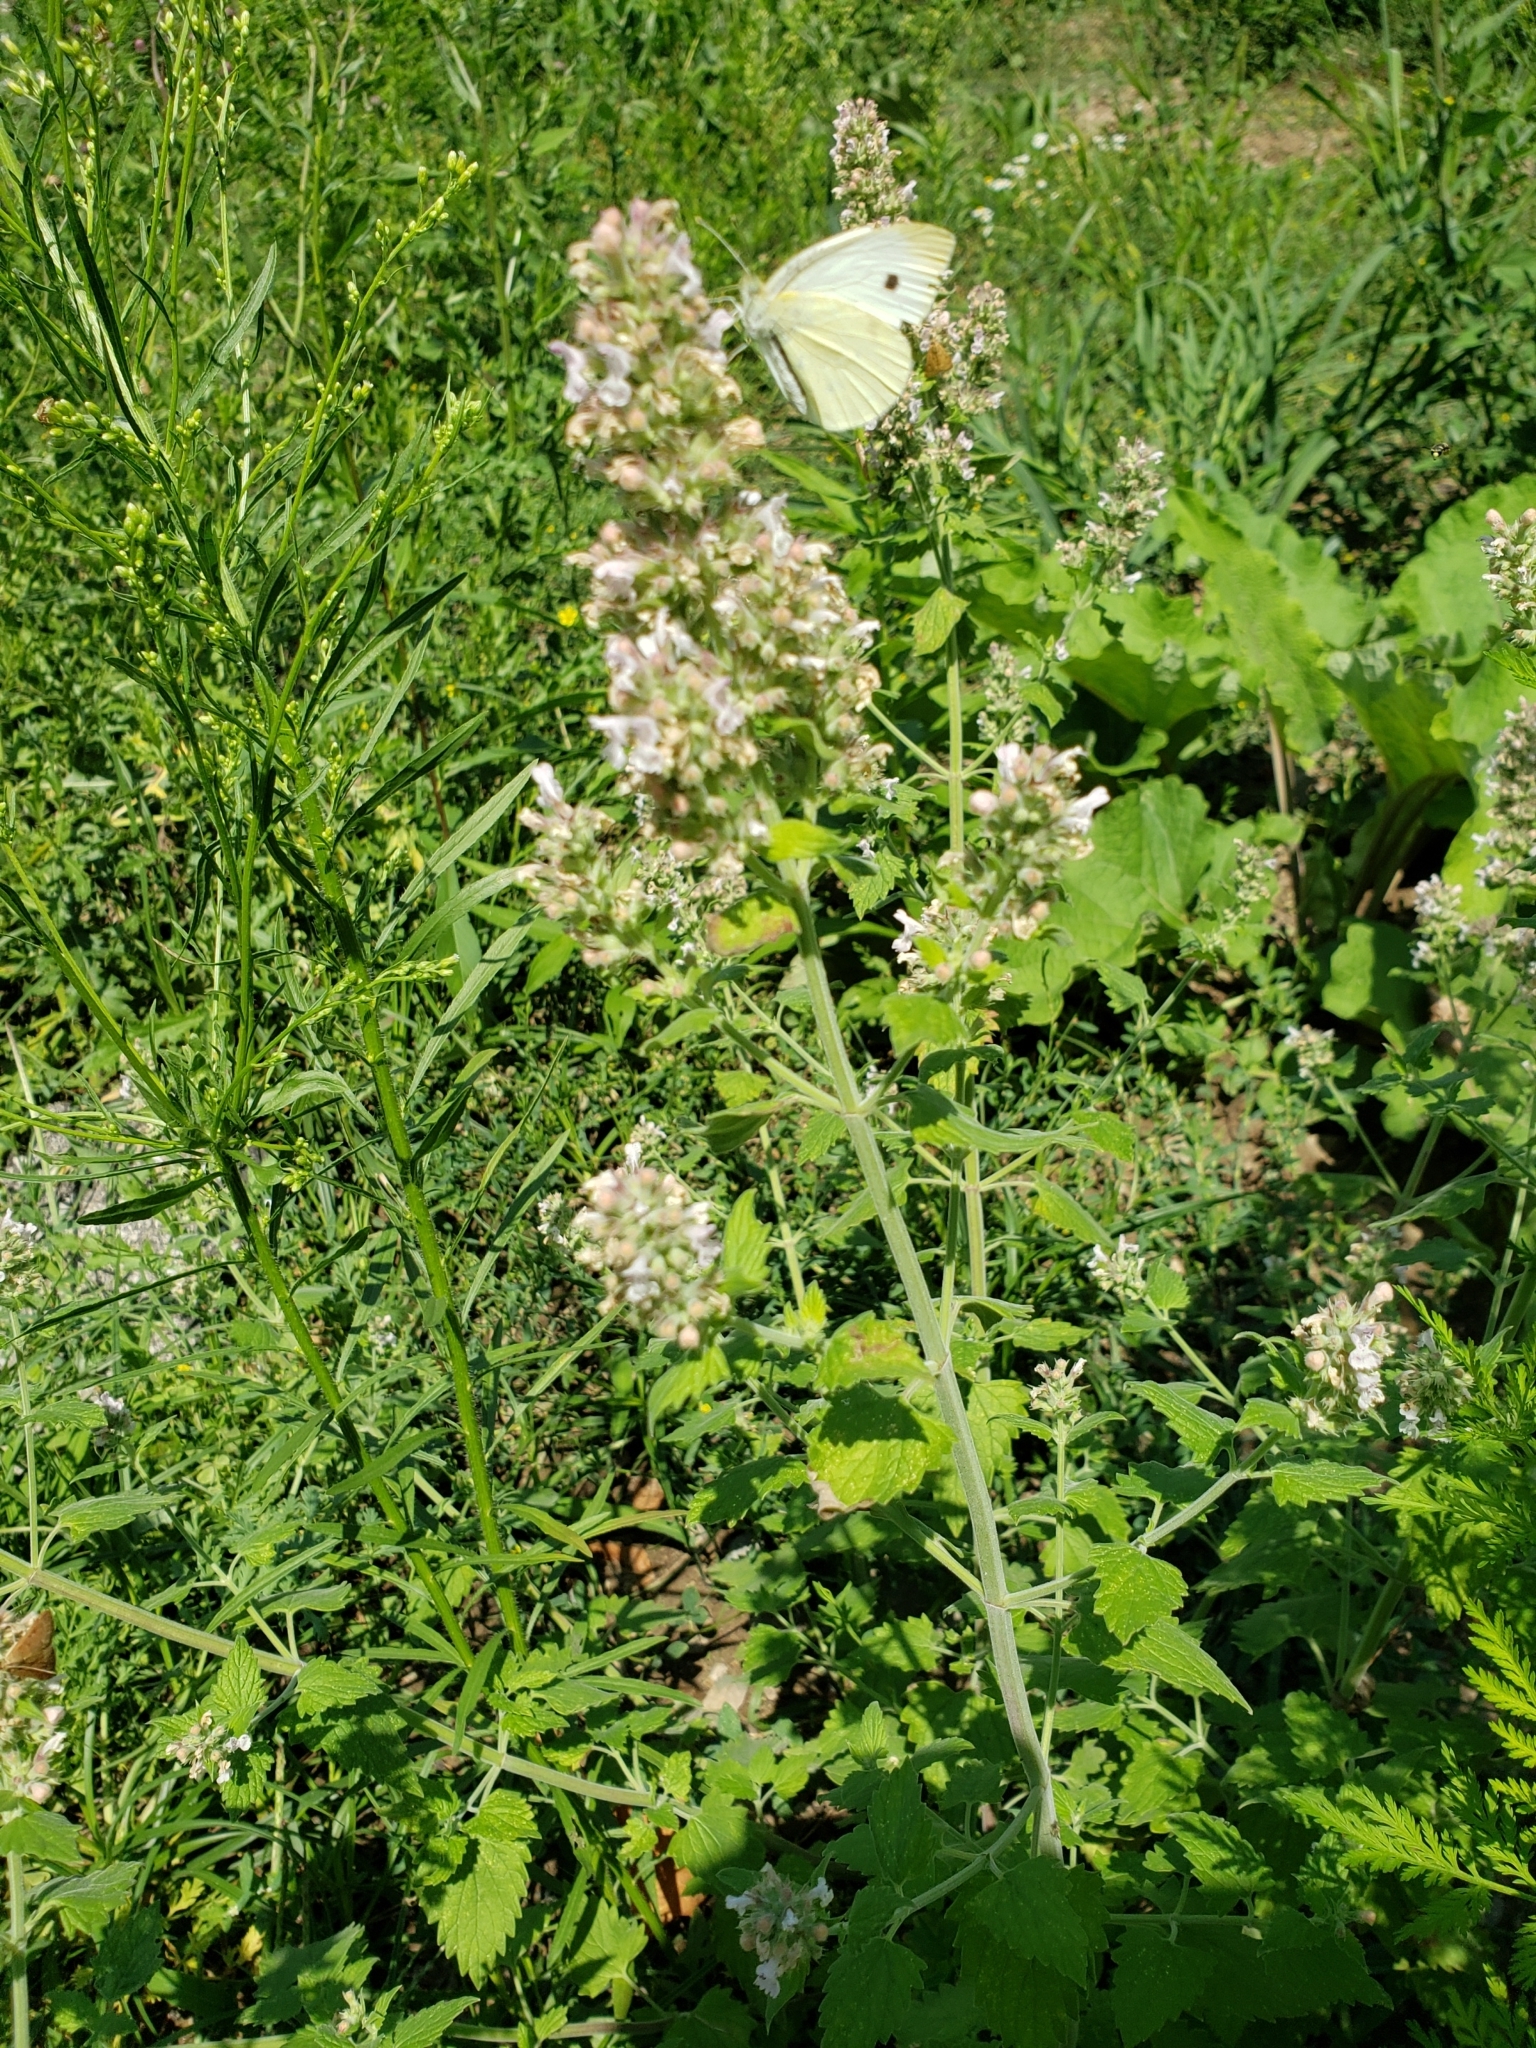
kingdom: Plantae
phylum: Tracheophyta
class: Magnoliopsida
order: Lamiales
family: Lamiaceae
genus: Nepeta
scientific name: Nepeta cataria
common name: Catnip
